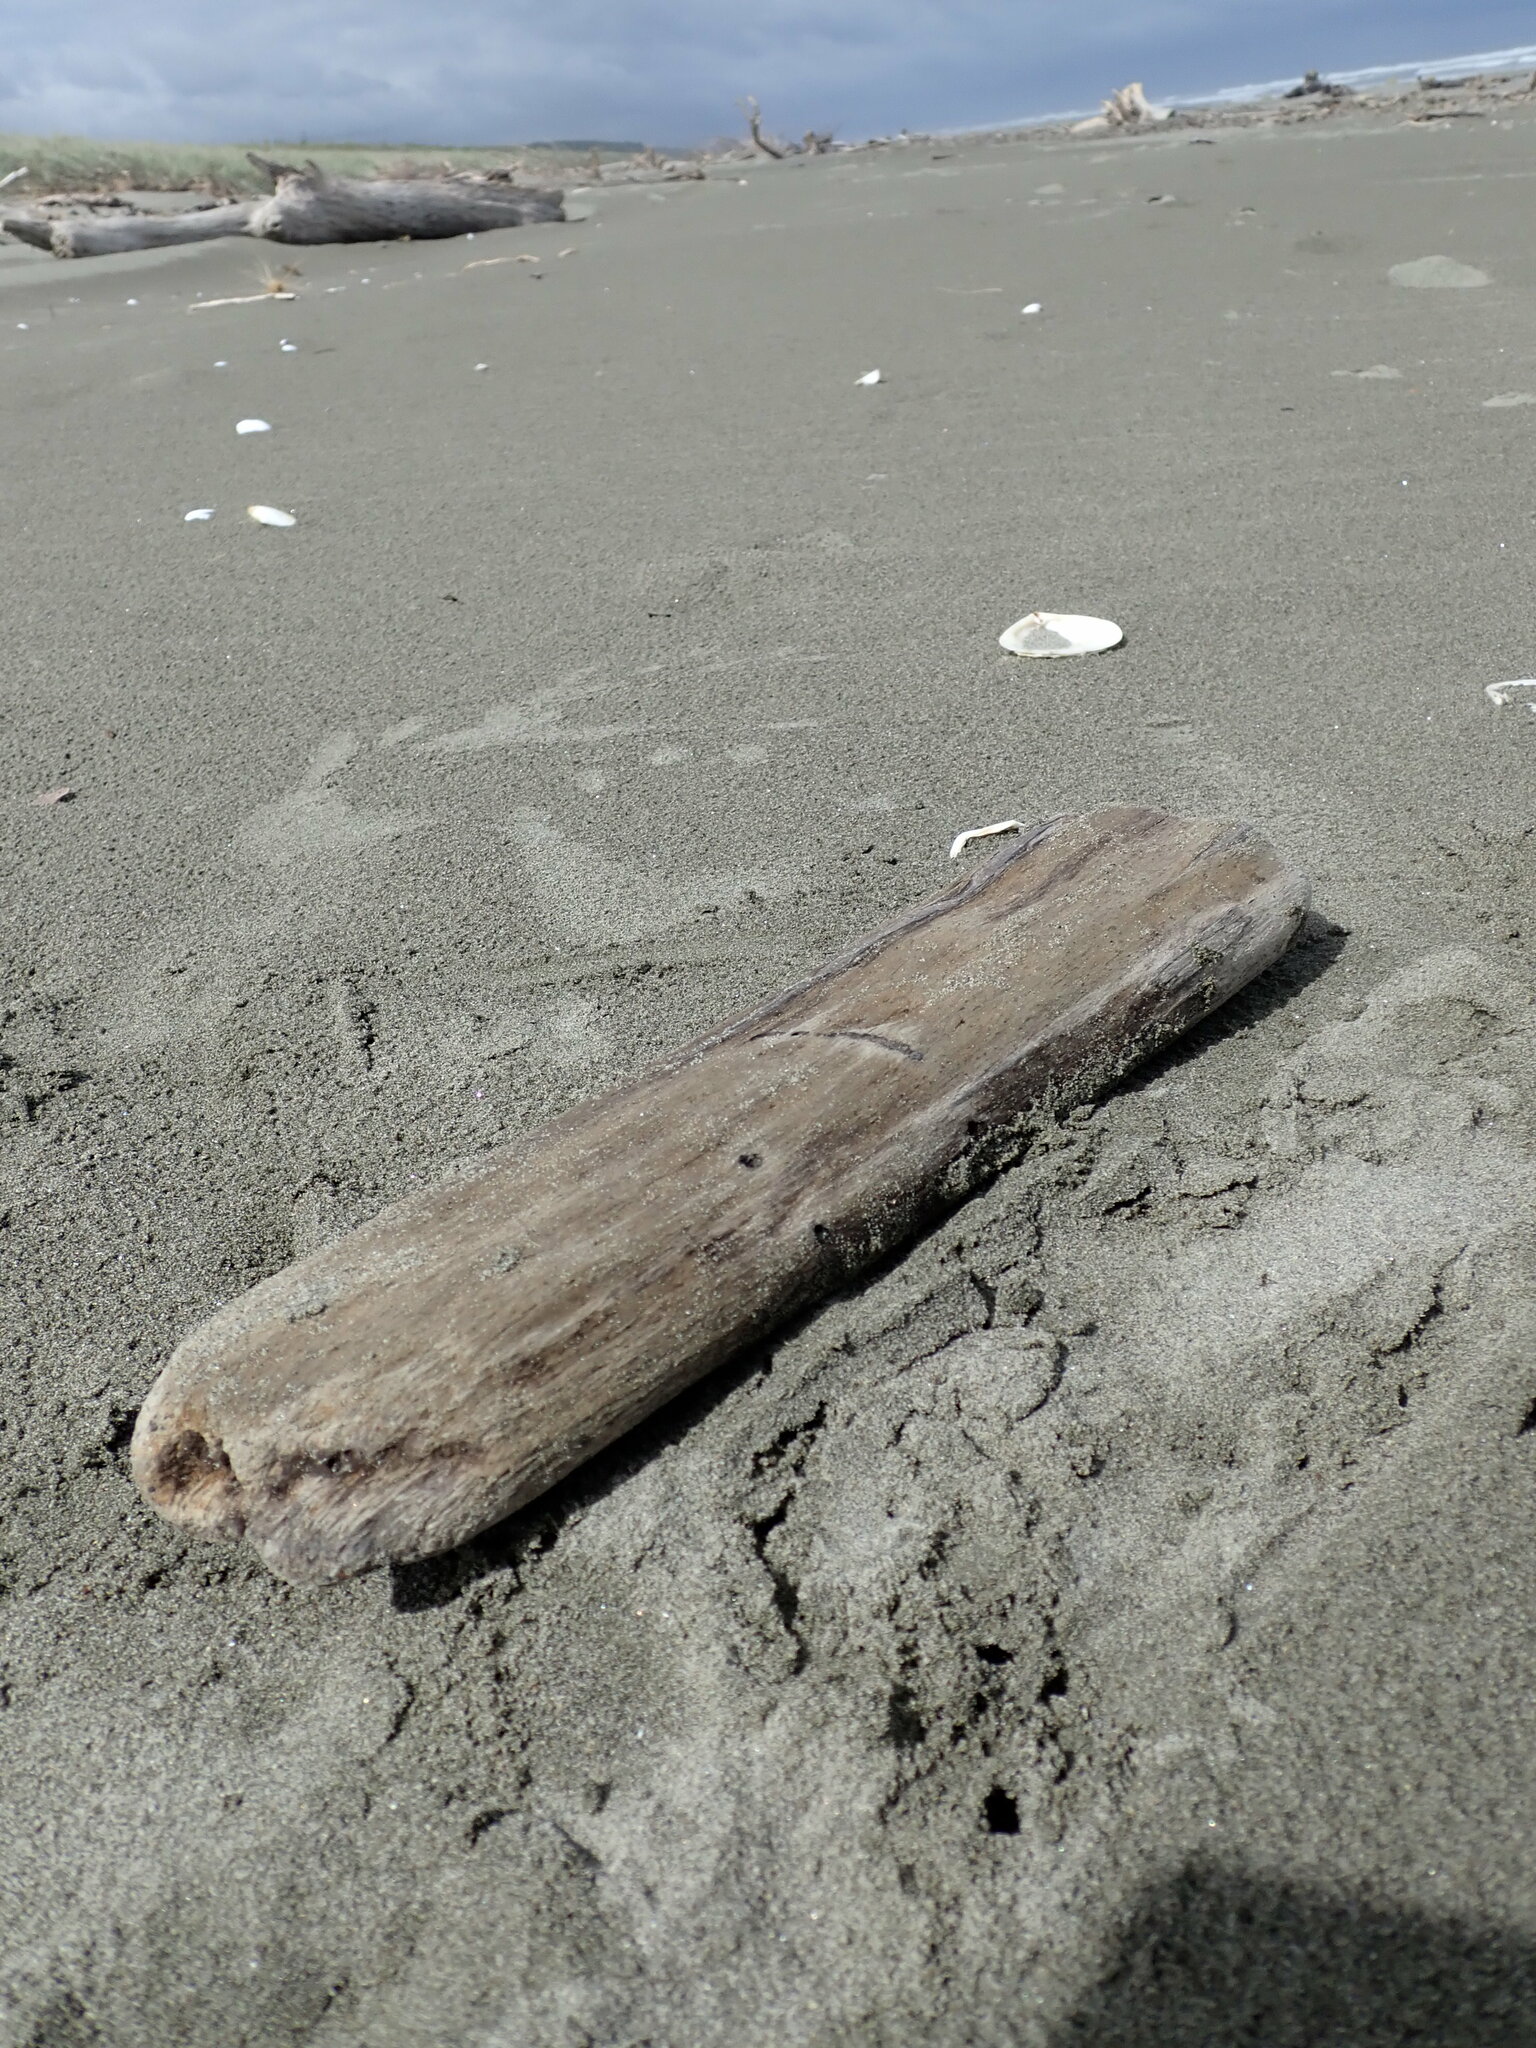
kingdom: Animalia
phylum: Arthropoda
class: Insecta
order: Hemiptera
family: Ricaniidae
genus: Scolypopa
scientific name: Scolypopa australis
